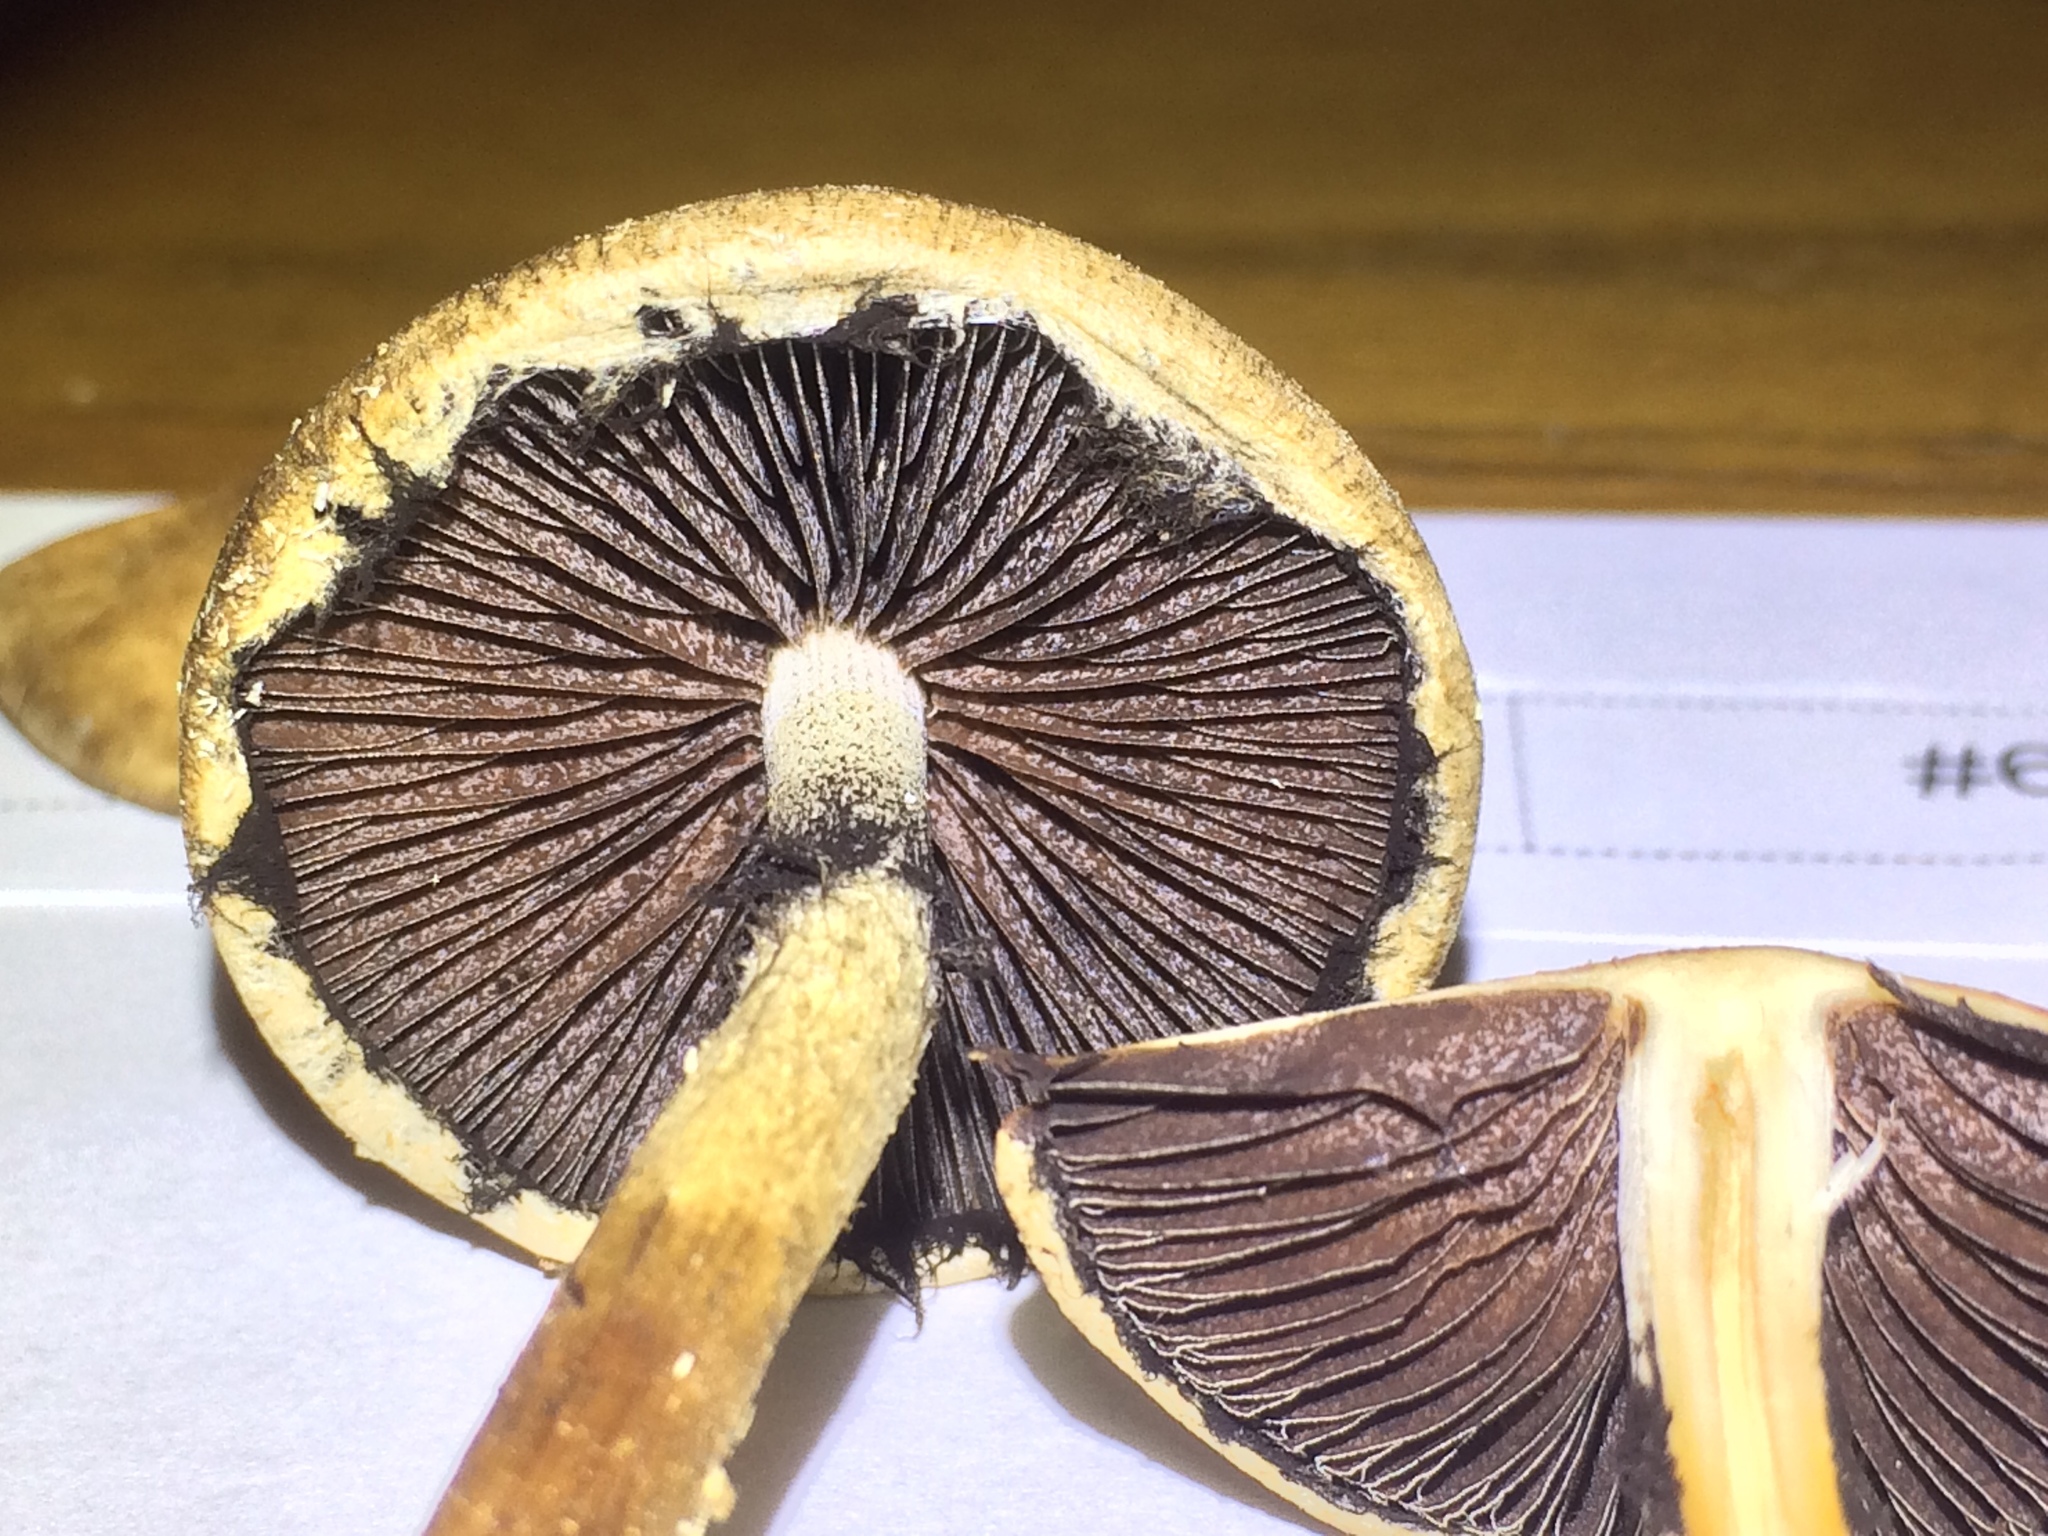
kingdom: Fungi
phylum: Basidiomycota
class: Agaricomycetes
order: Agaricales
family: Psathyrellaceae
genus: Lacrymaria
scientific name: Lacrymaria lacrymabunda
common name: Weeping widow
